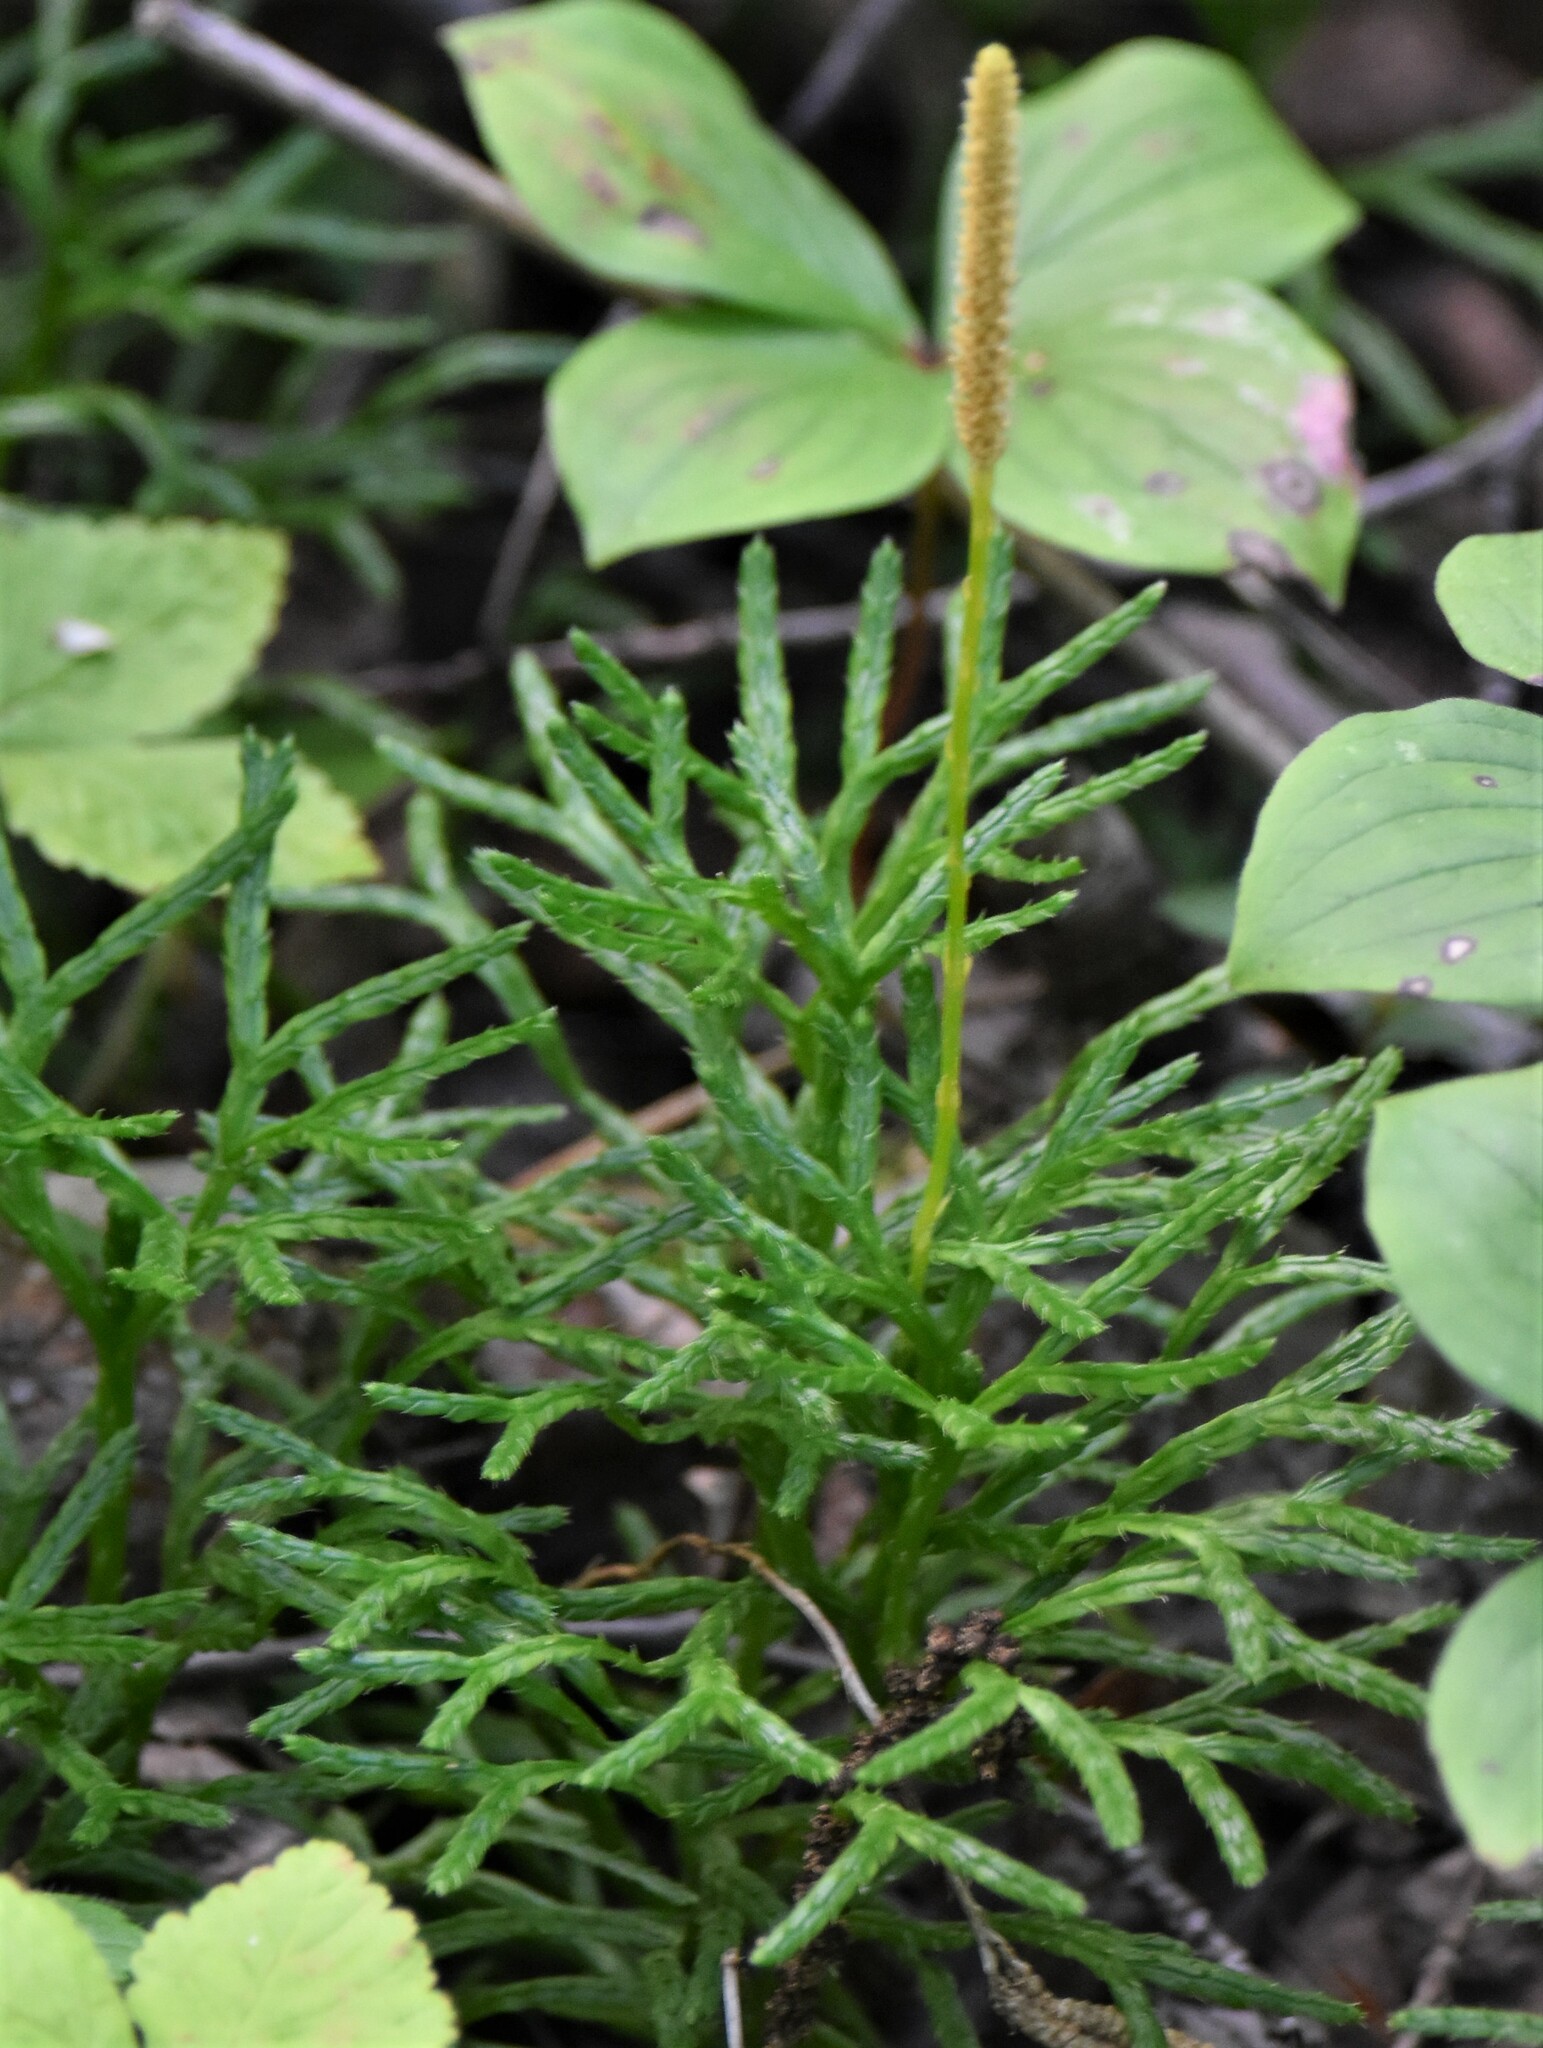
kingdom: Plantae
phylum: Tracheophyta
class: Lycopodiopsida
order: Lycopodiales
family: Lycopodiaceae
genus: Diphasiastrum
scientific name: Diphasiastrum complanatum
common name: Northern running-pine
